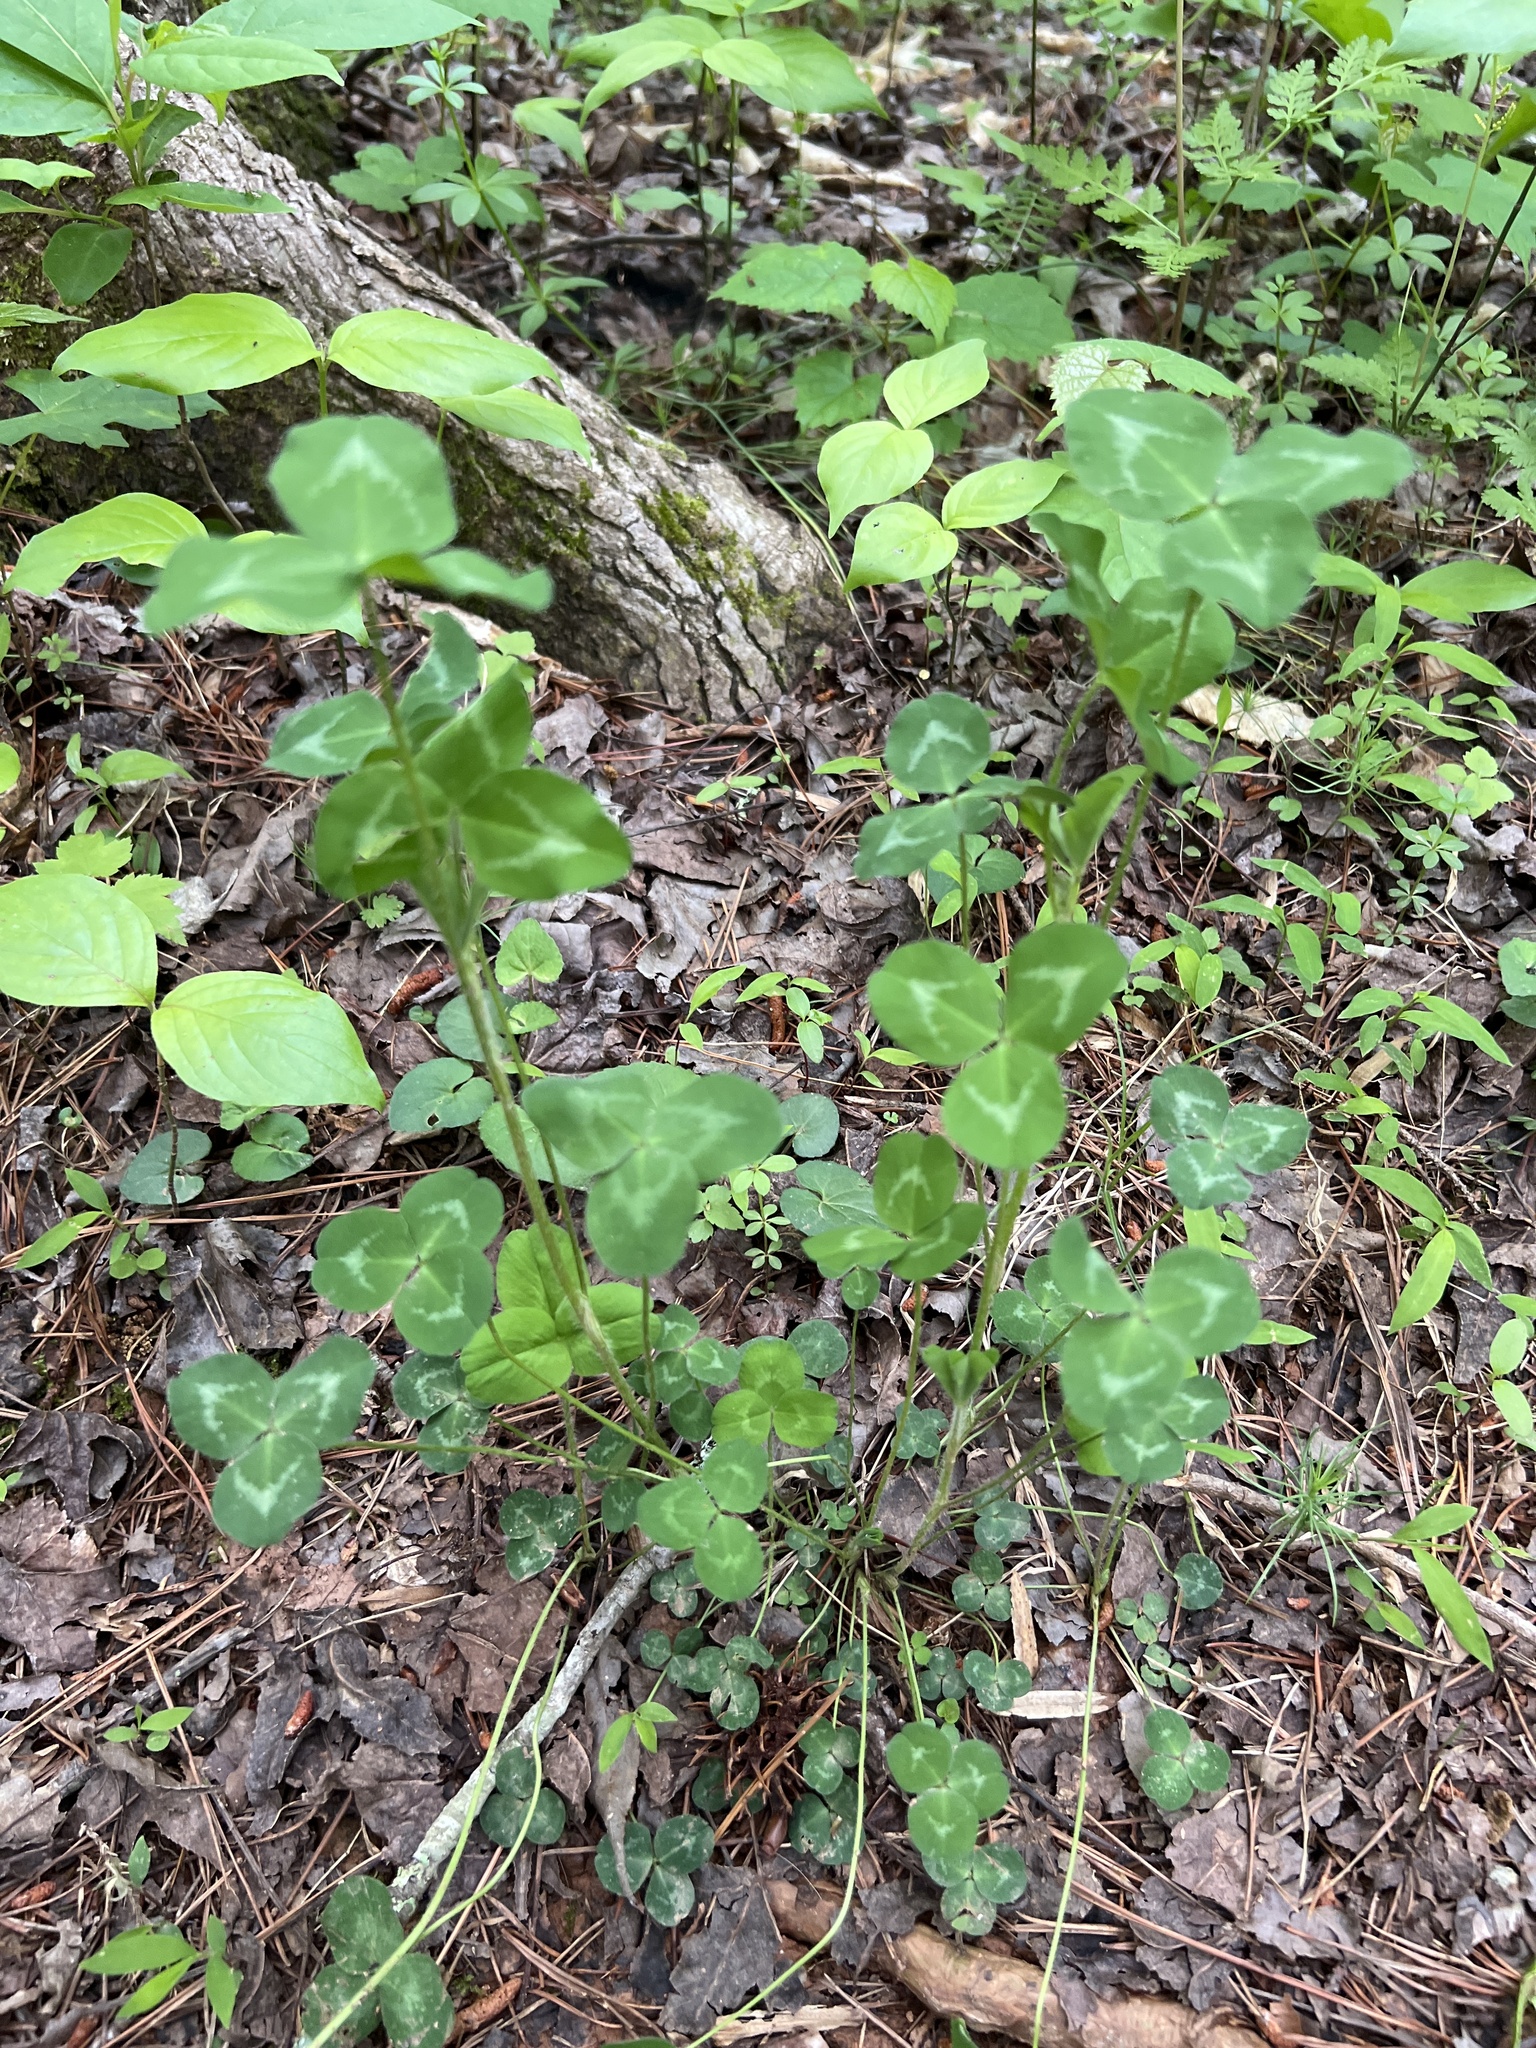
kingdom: Plantae
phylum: Tracheophyta
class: Magnoliopsida
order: Fabales
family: Fabaceae
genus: Trifolium
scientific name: Trifolium pratense
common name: Red clover
